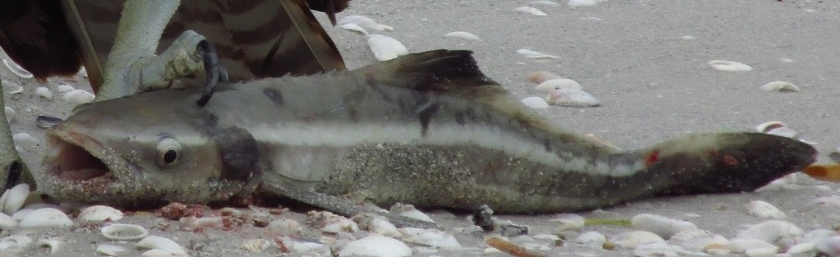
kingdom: Animalia
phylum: Chordata
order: Perciformes
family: Rachycentridae
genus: Rachycentron
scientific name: Rachycentron canadum
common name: Cobia
